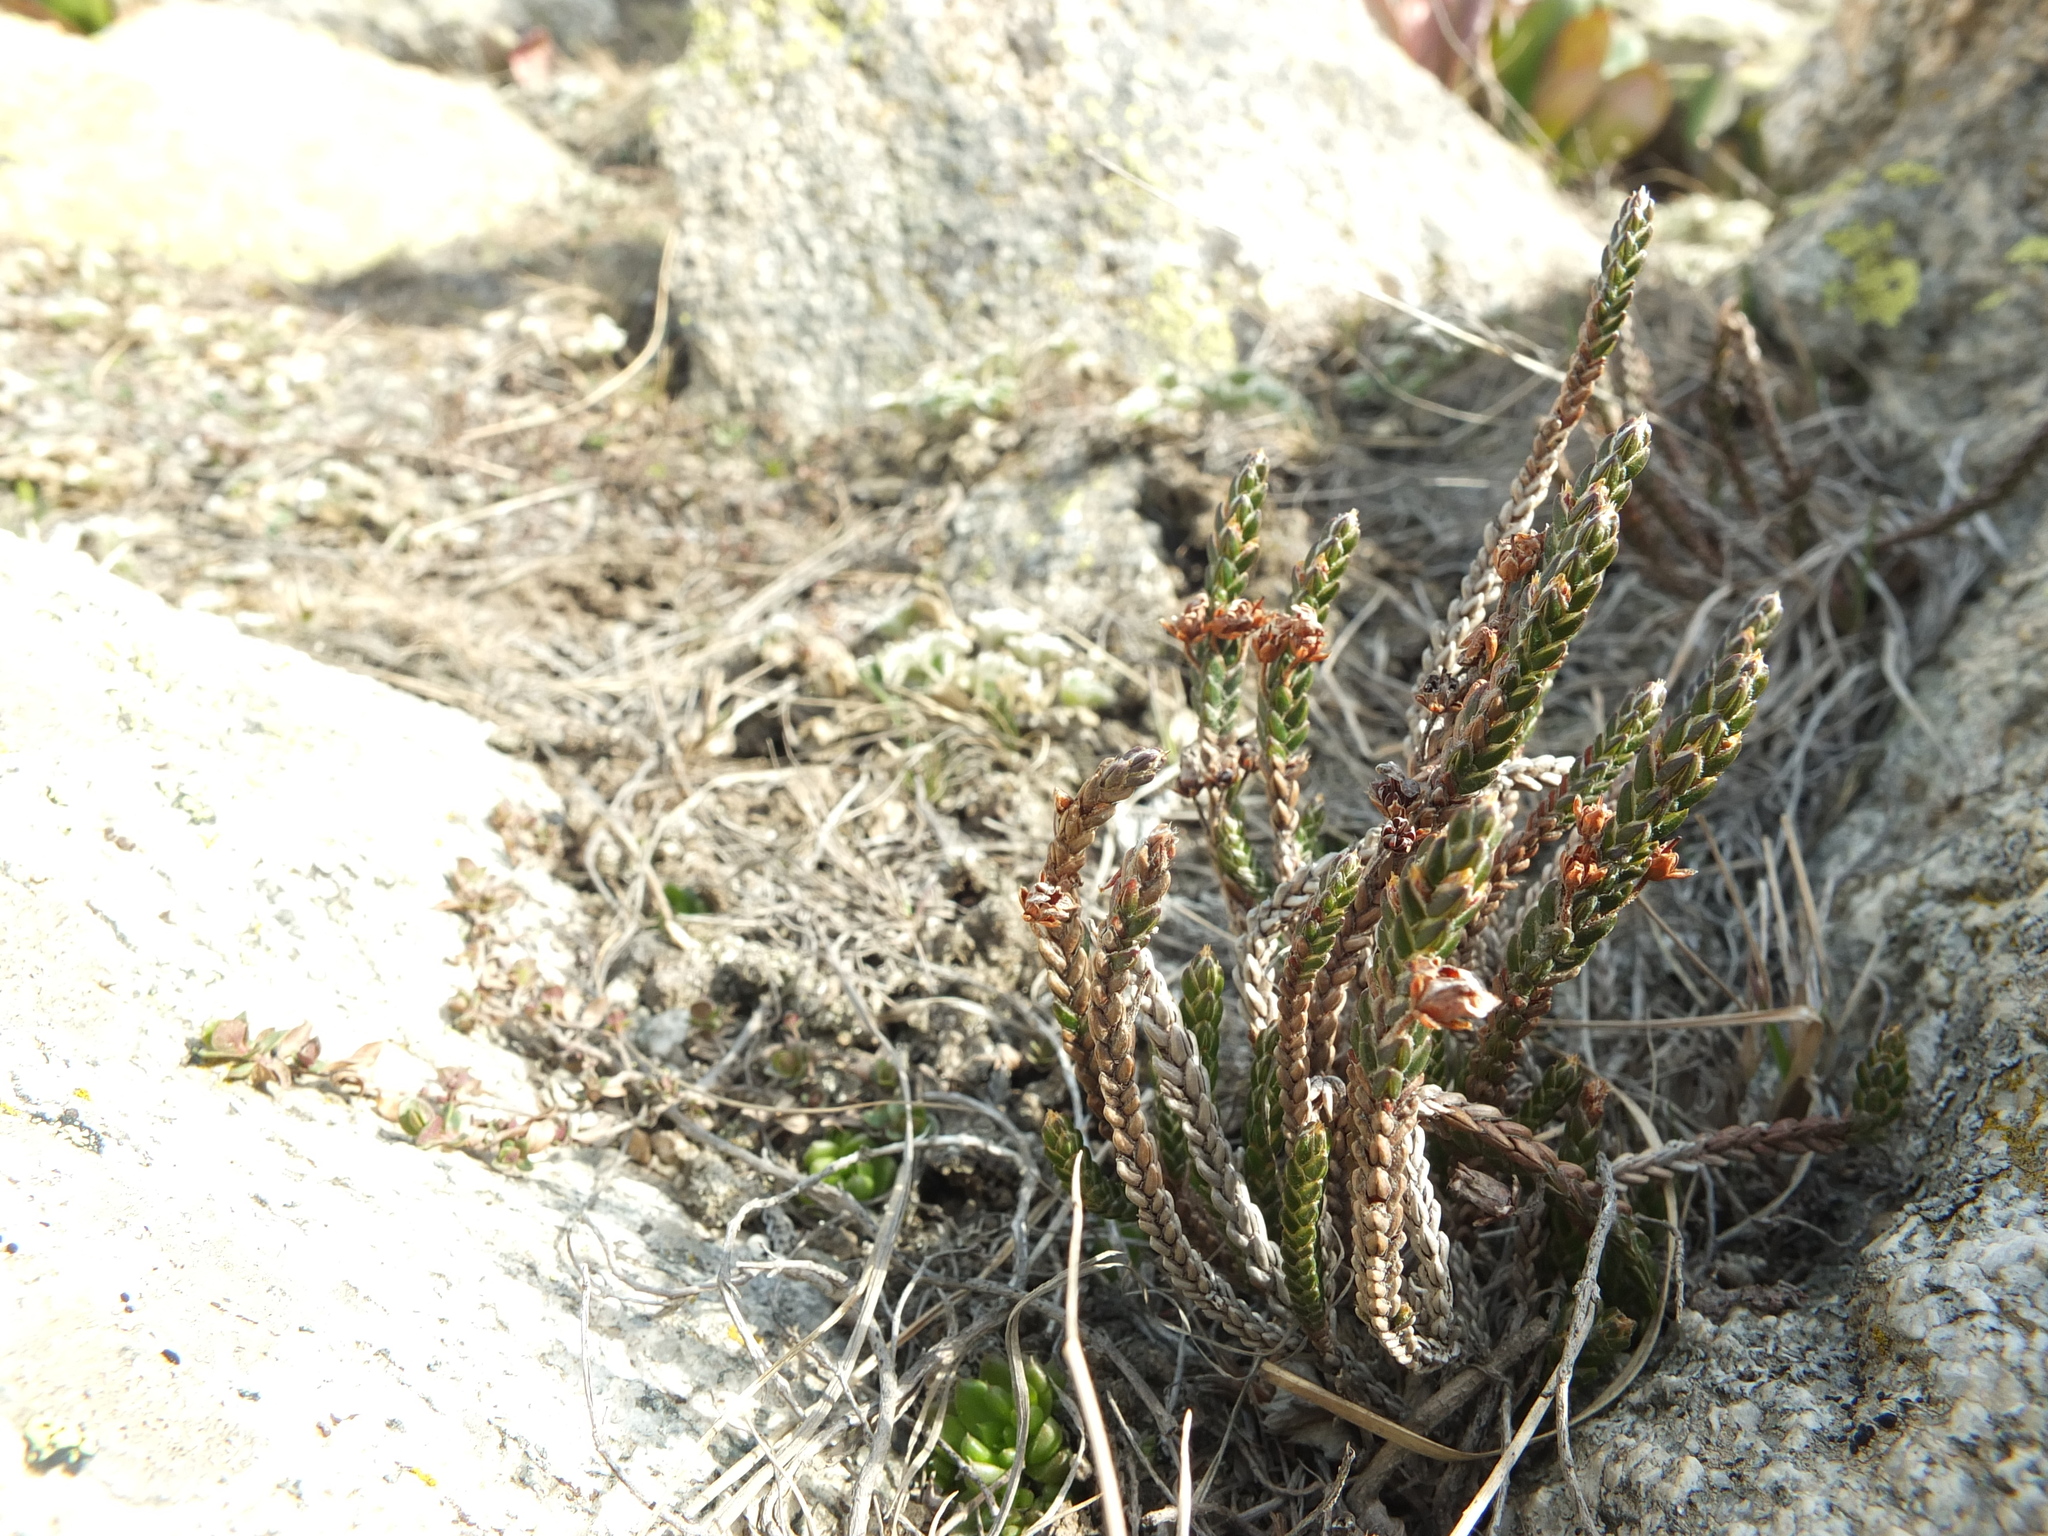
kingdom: Plantae
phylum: Tracheophyta
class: Magnoliopsida
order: Ericales
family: Ericaceae
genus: Cassiope
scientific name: Cassiope fastigiata
